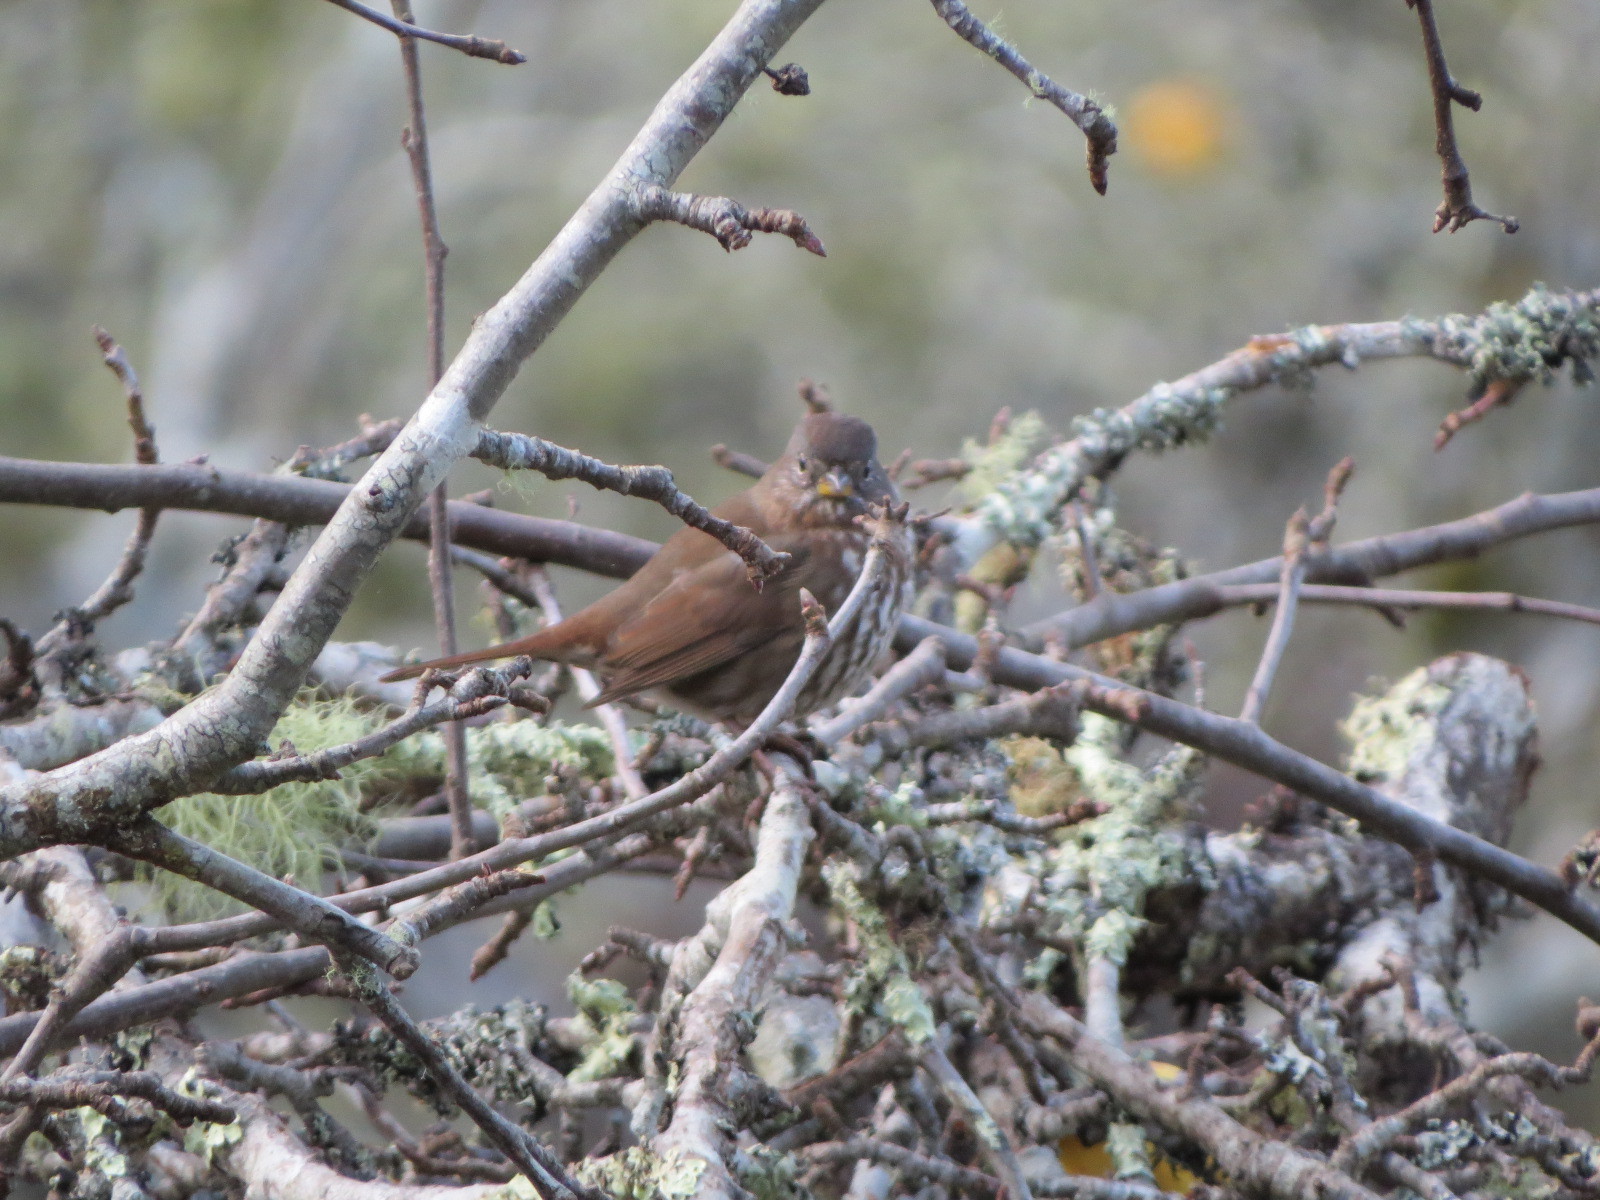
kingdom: Animalia
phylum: Chordata
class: Aves
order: Passeriformes
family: Passerellidae
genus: Passerella
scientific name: Passerella iliaca
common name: Fox sparrow
